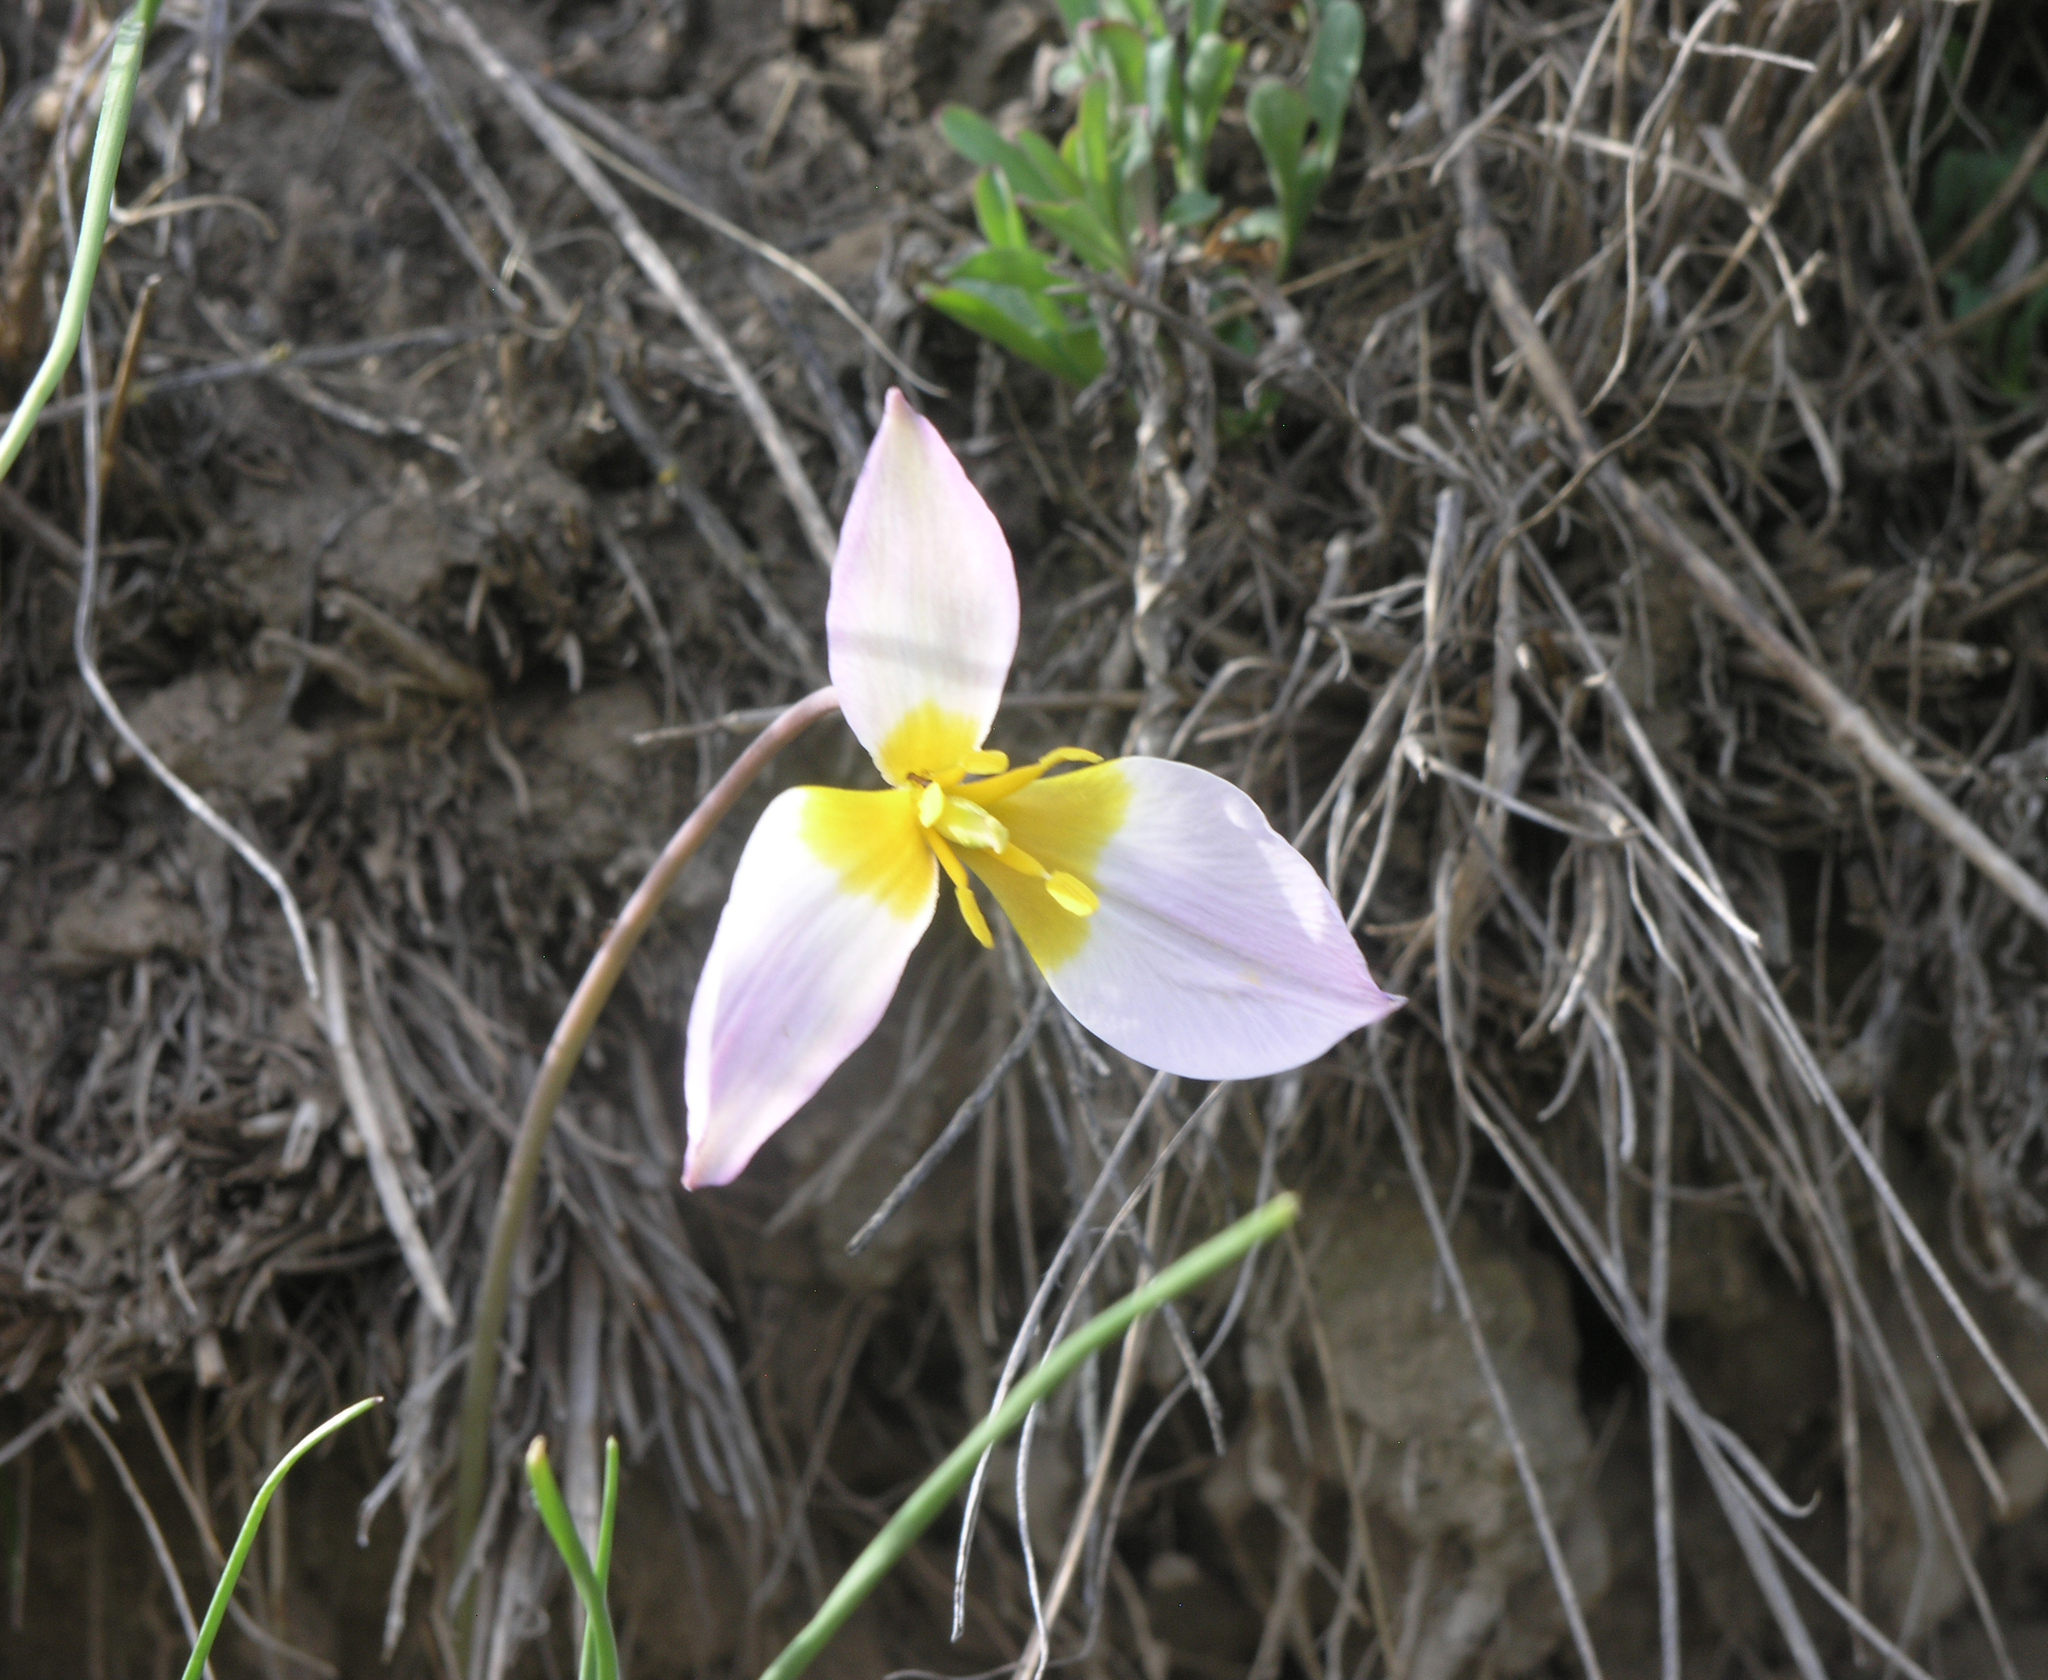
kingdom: Plantae
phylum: Tracheophyta
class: Liliopsida
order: Liliales
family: Liliaceae
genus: Tulipa
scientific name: Tulipa patens
